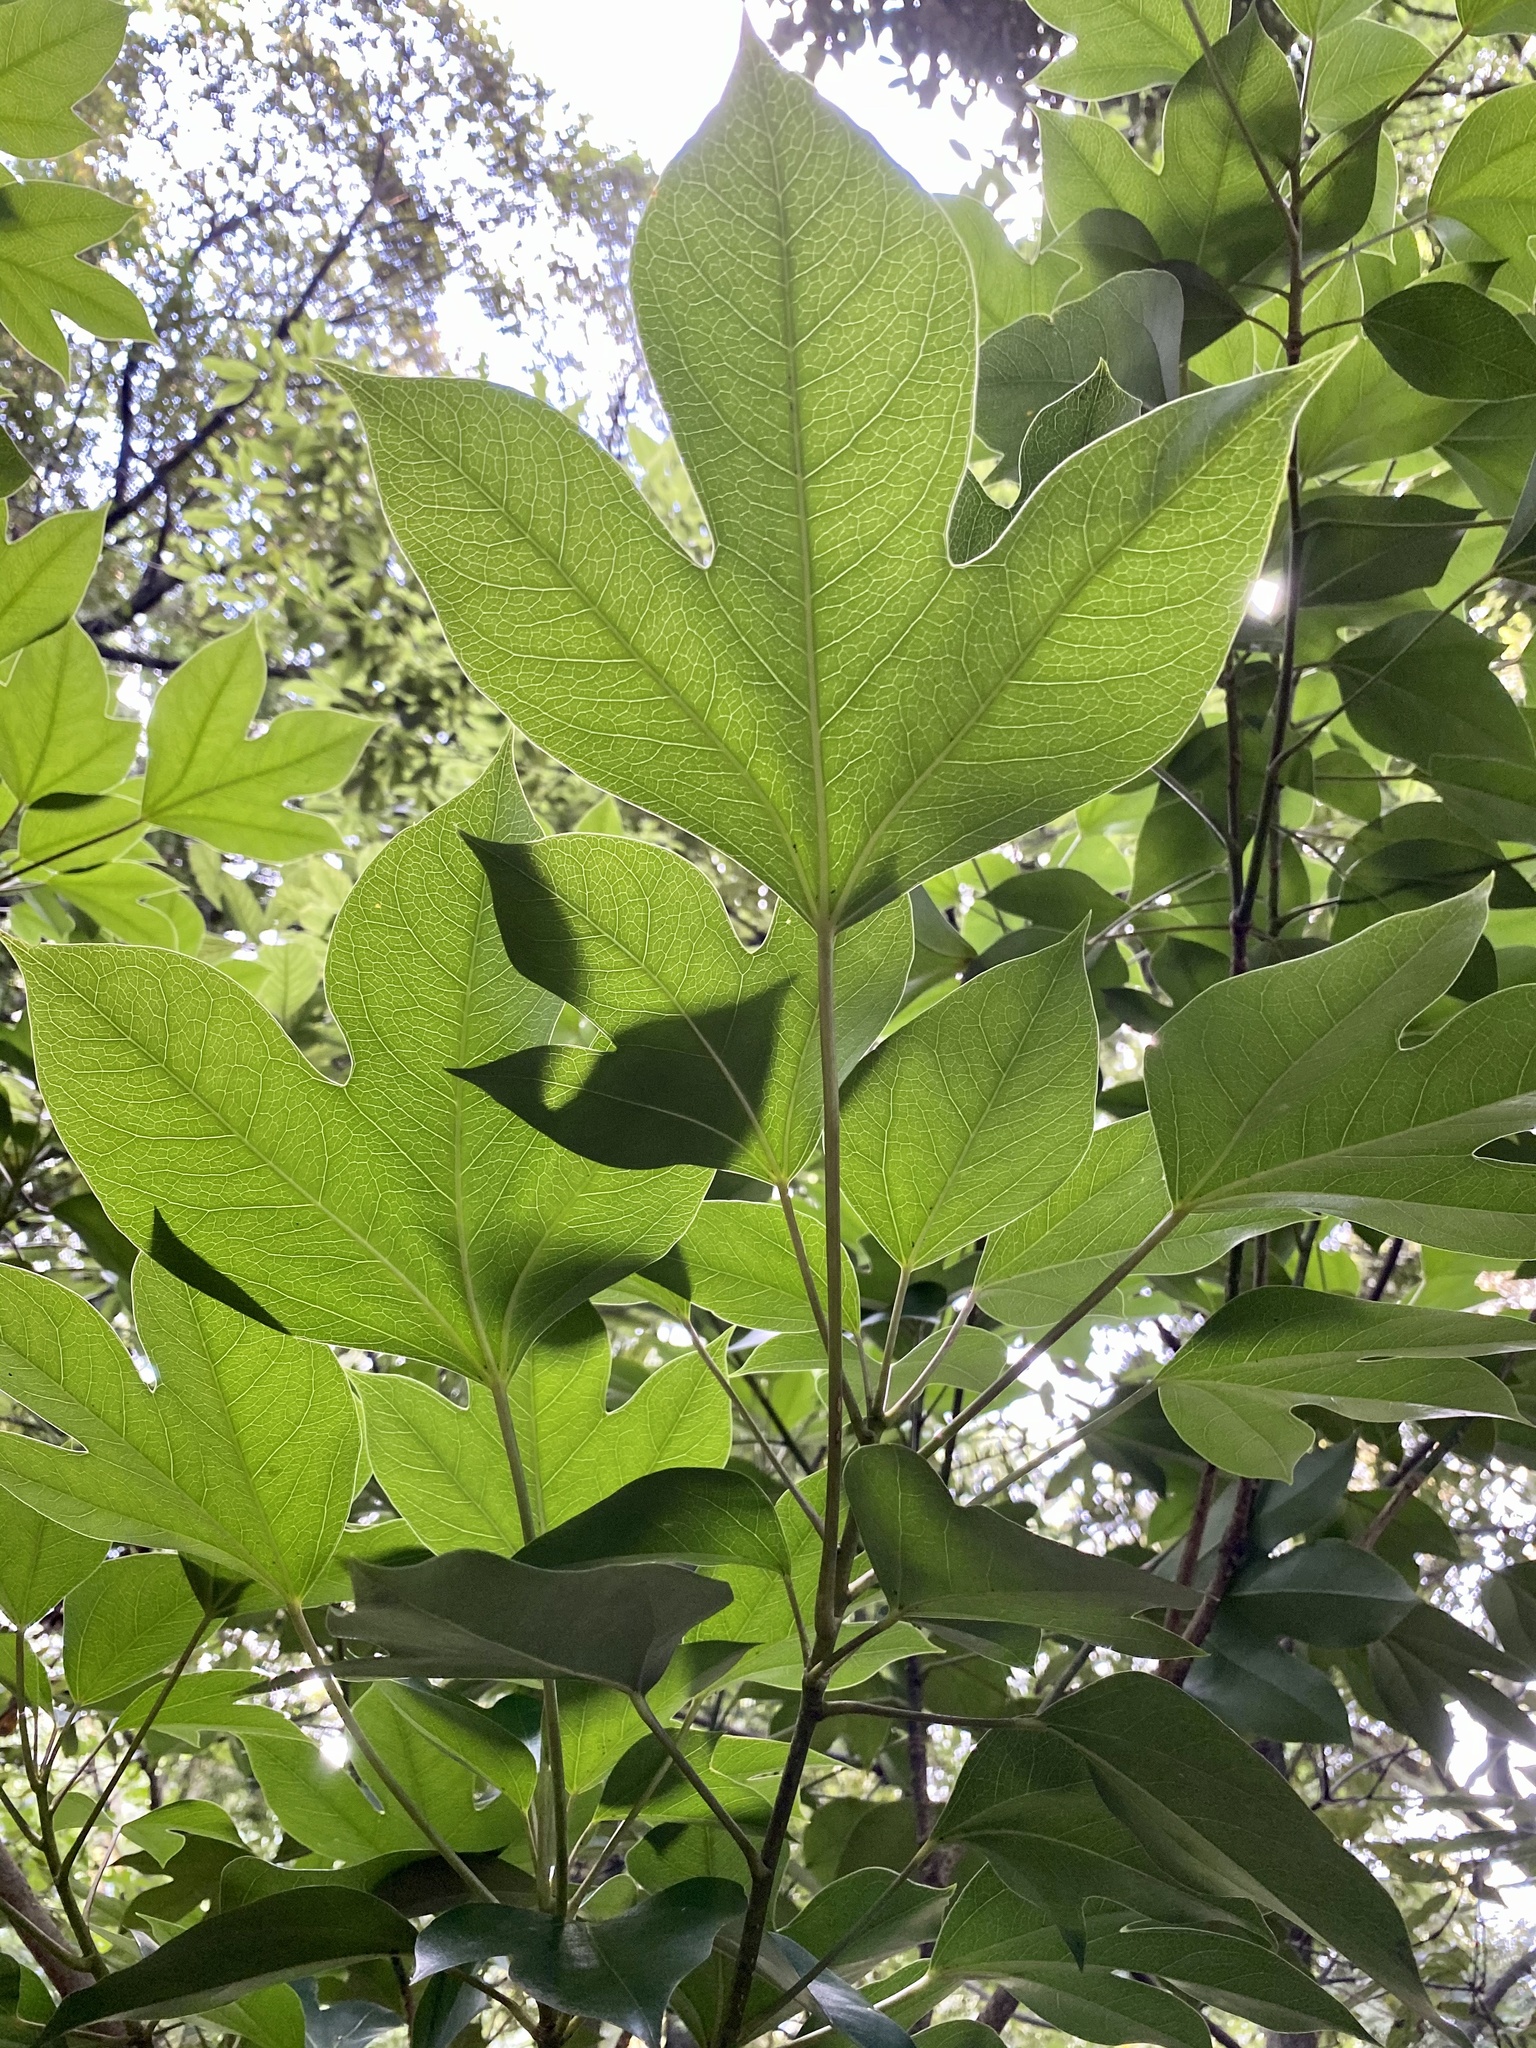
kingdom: Plantae
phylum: Tracheophyta
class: Magnoliopsida
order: Apiales
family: Araliaceae
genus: Dendropanax
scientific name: Dendropanax trifidus
